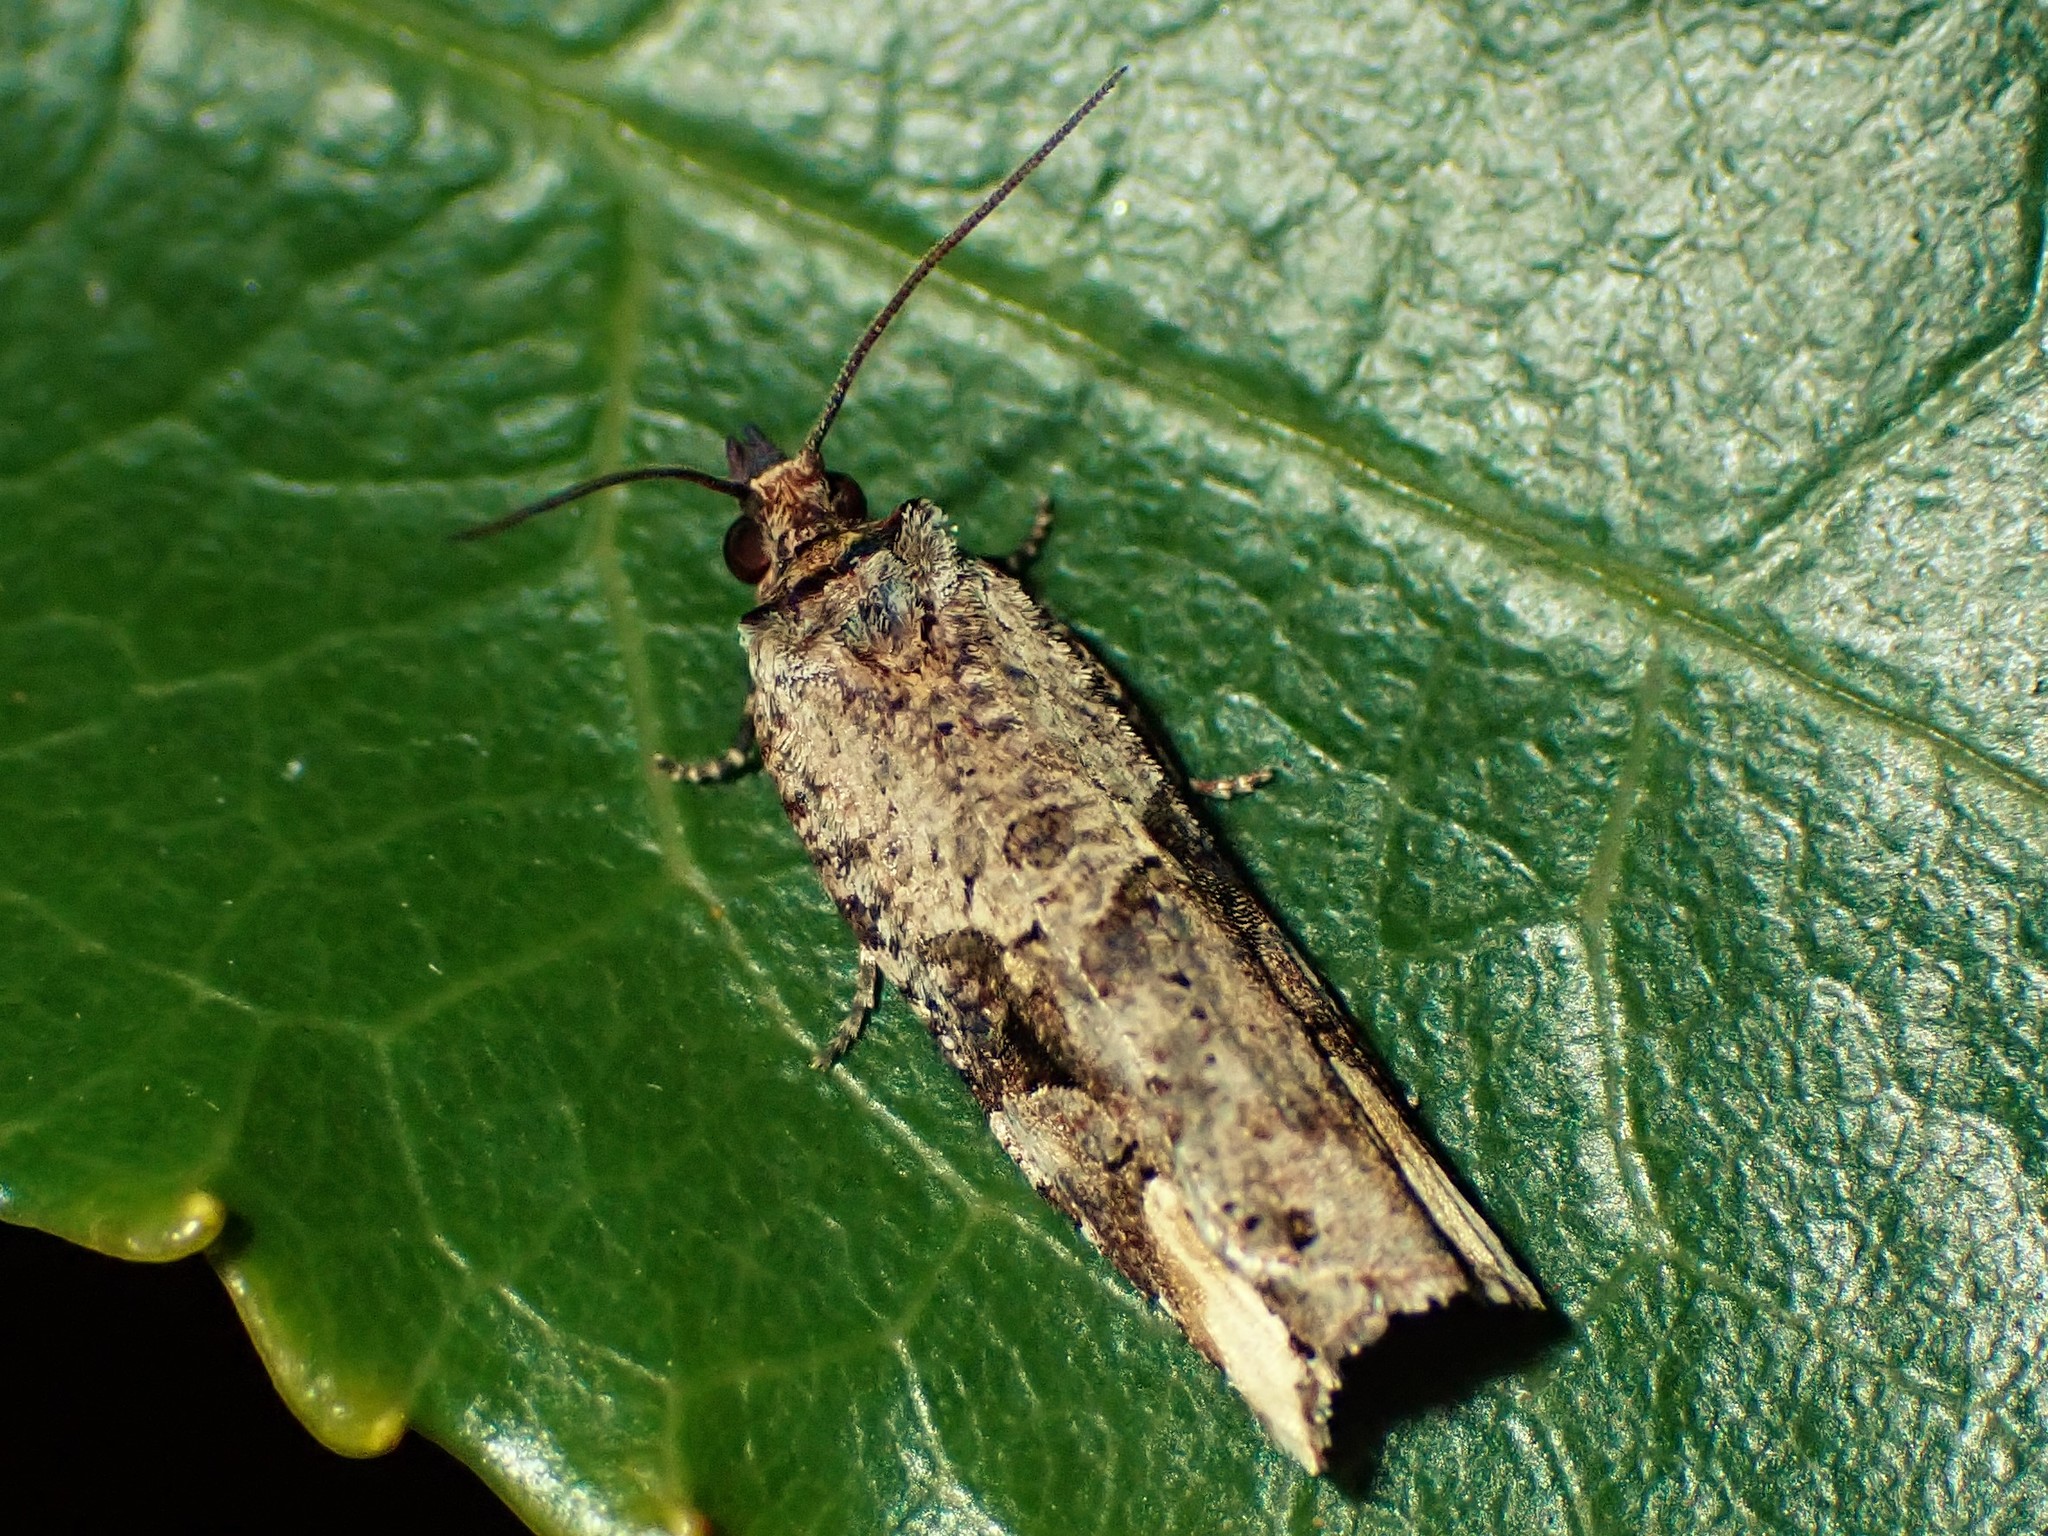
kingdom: Animalia
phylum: Arthropoda
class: Insecta
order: Lepidoptera
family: Tortricidae
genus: Epalxiphora
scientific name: Epalxiphora axenana
